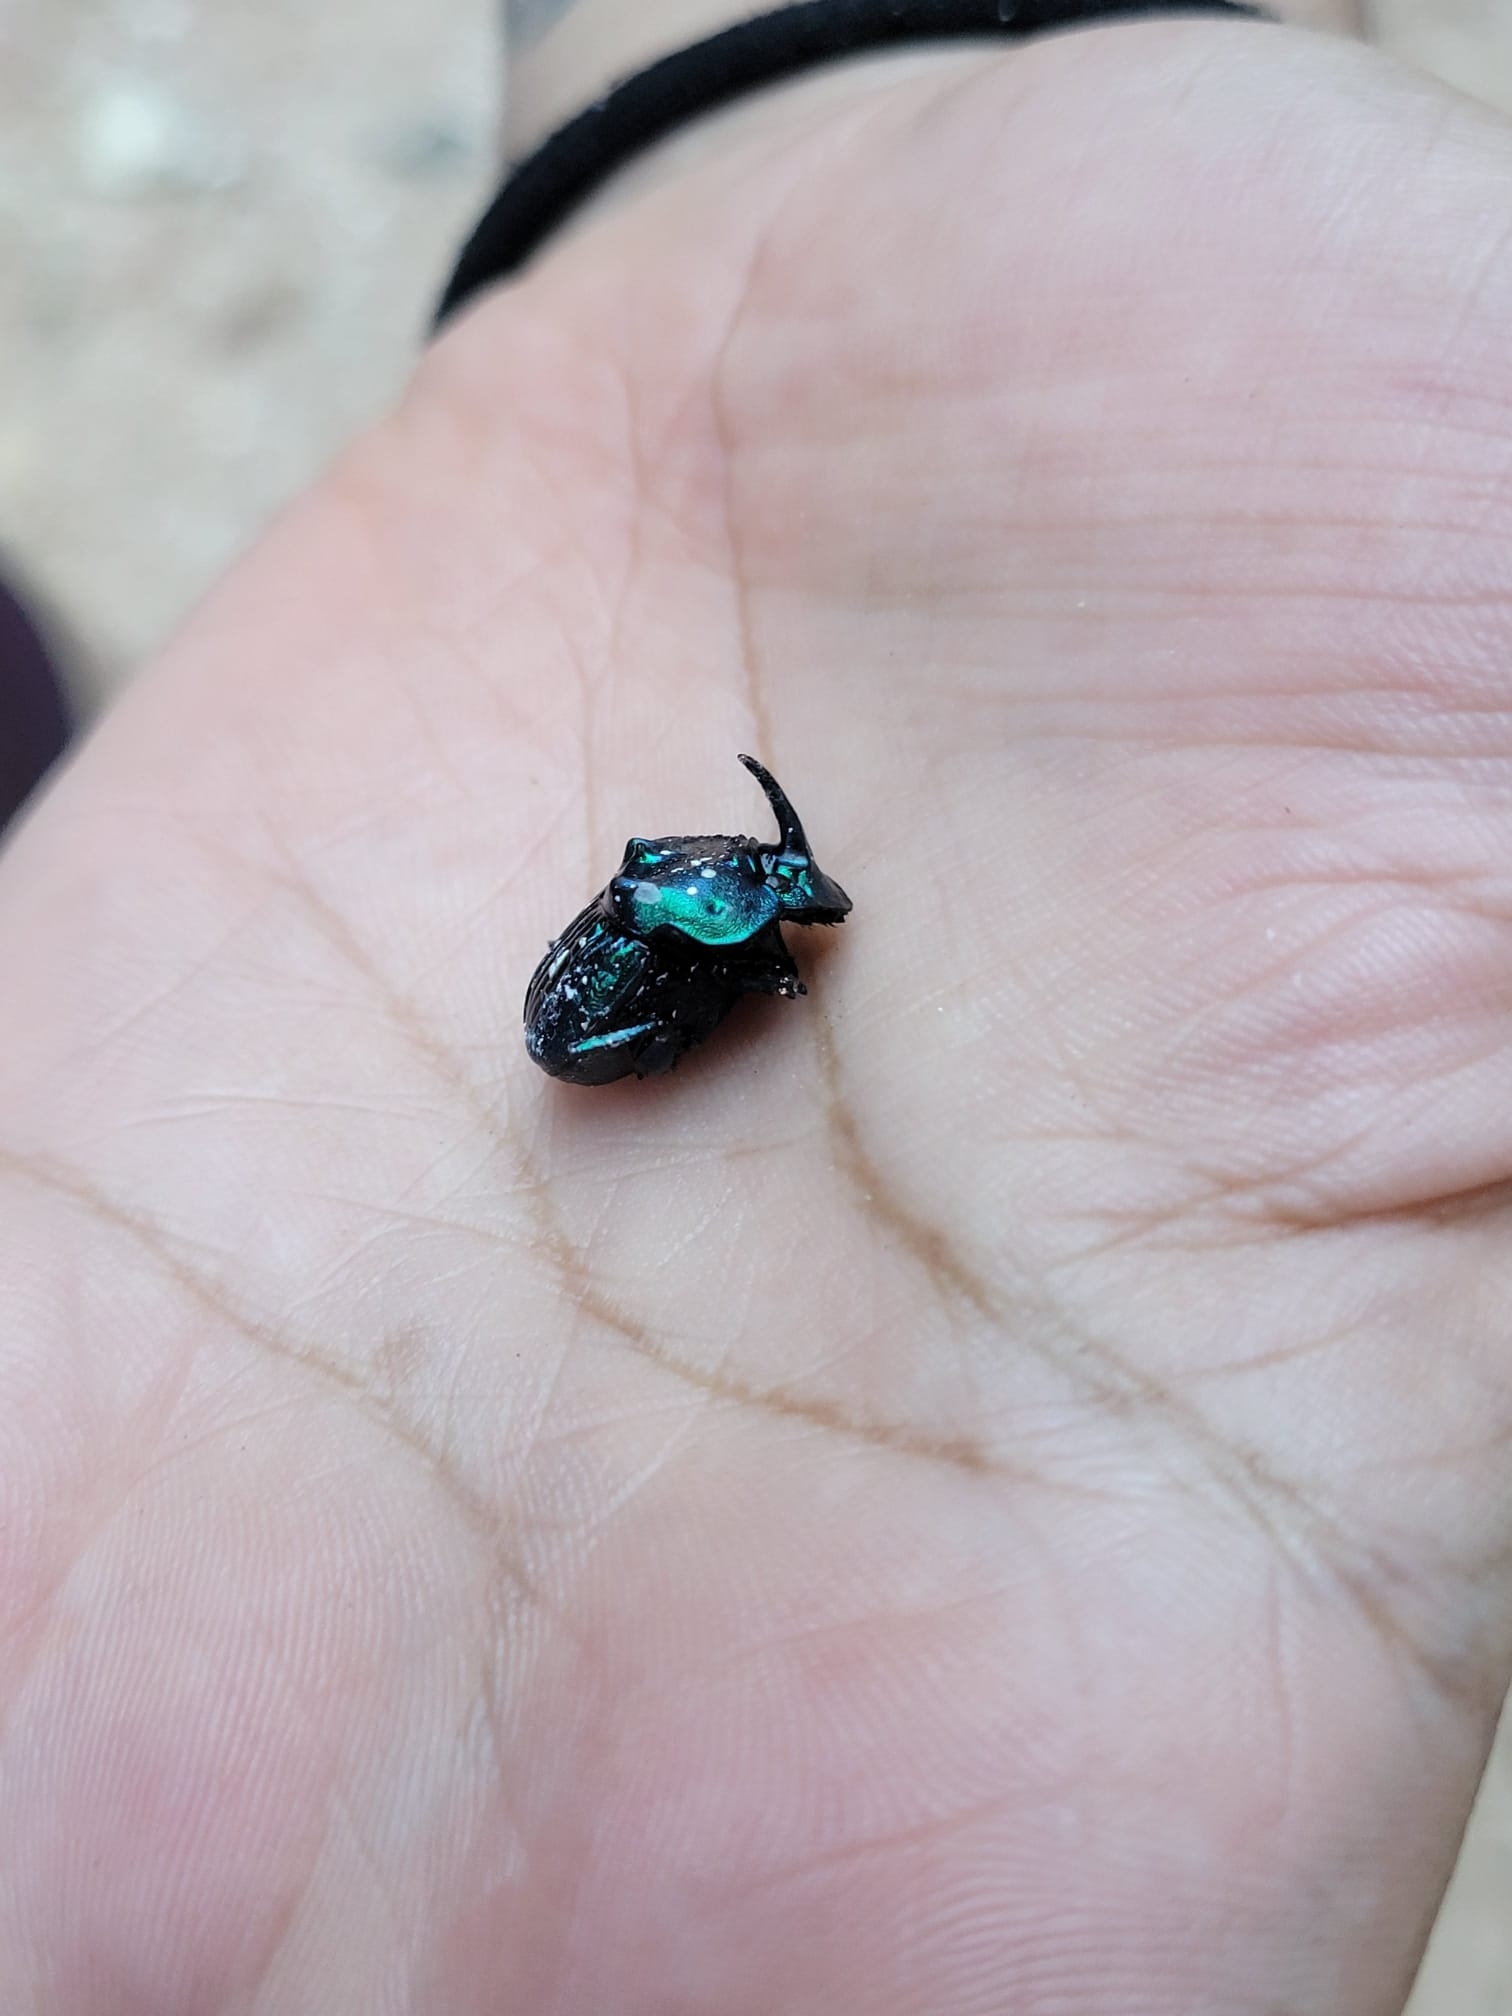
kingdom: Animalia
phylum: Arthropoda
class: Insecta
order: Coleoptera
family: Scarabaeidae
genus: Phanaeus
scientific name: Phanaeus furiosus
